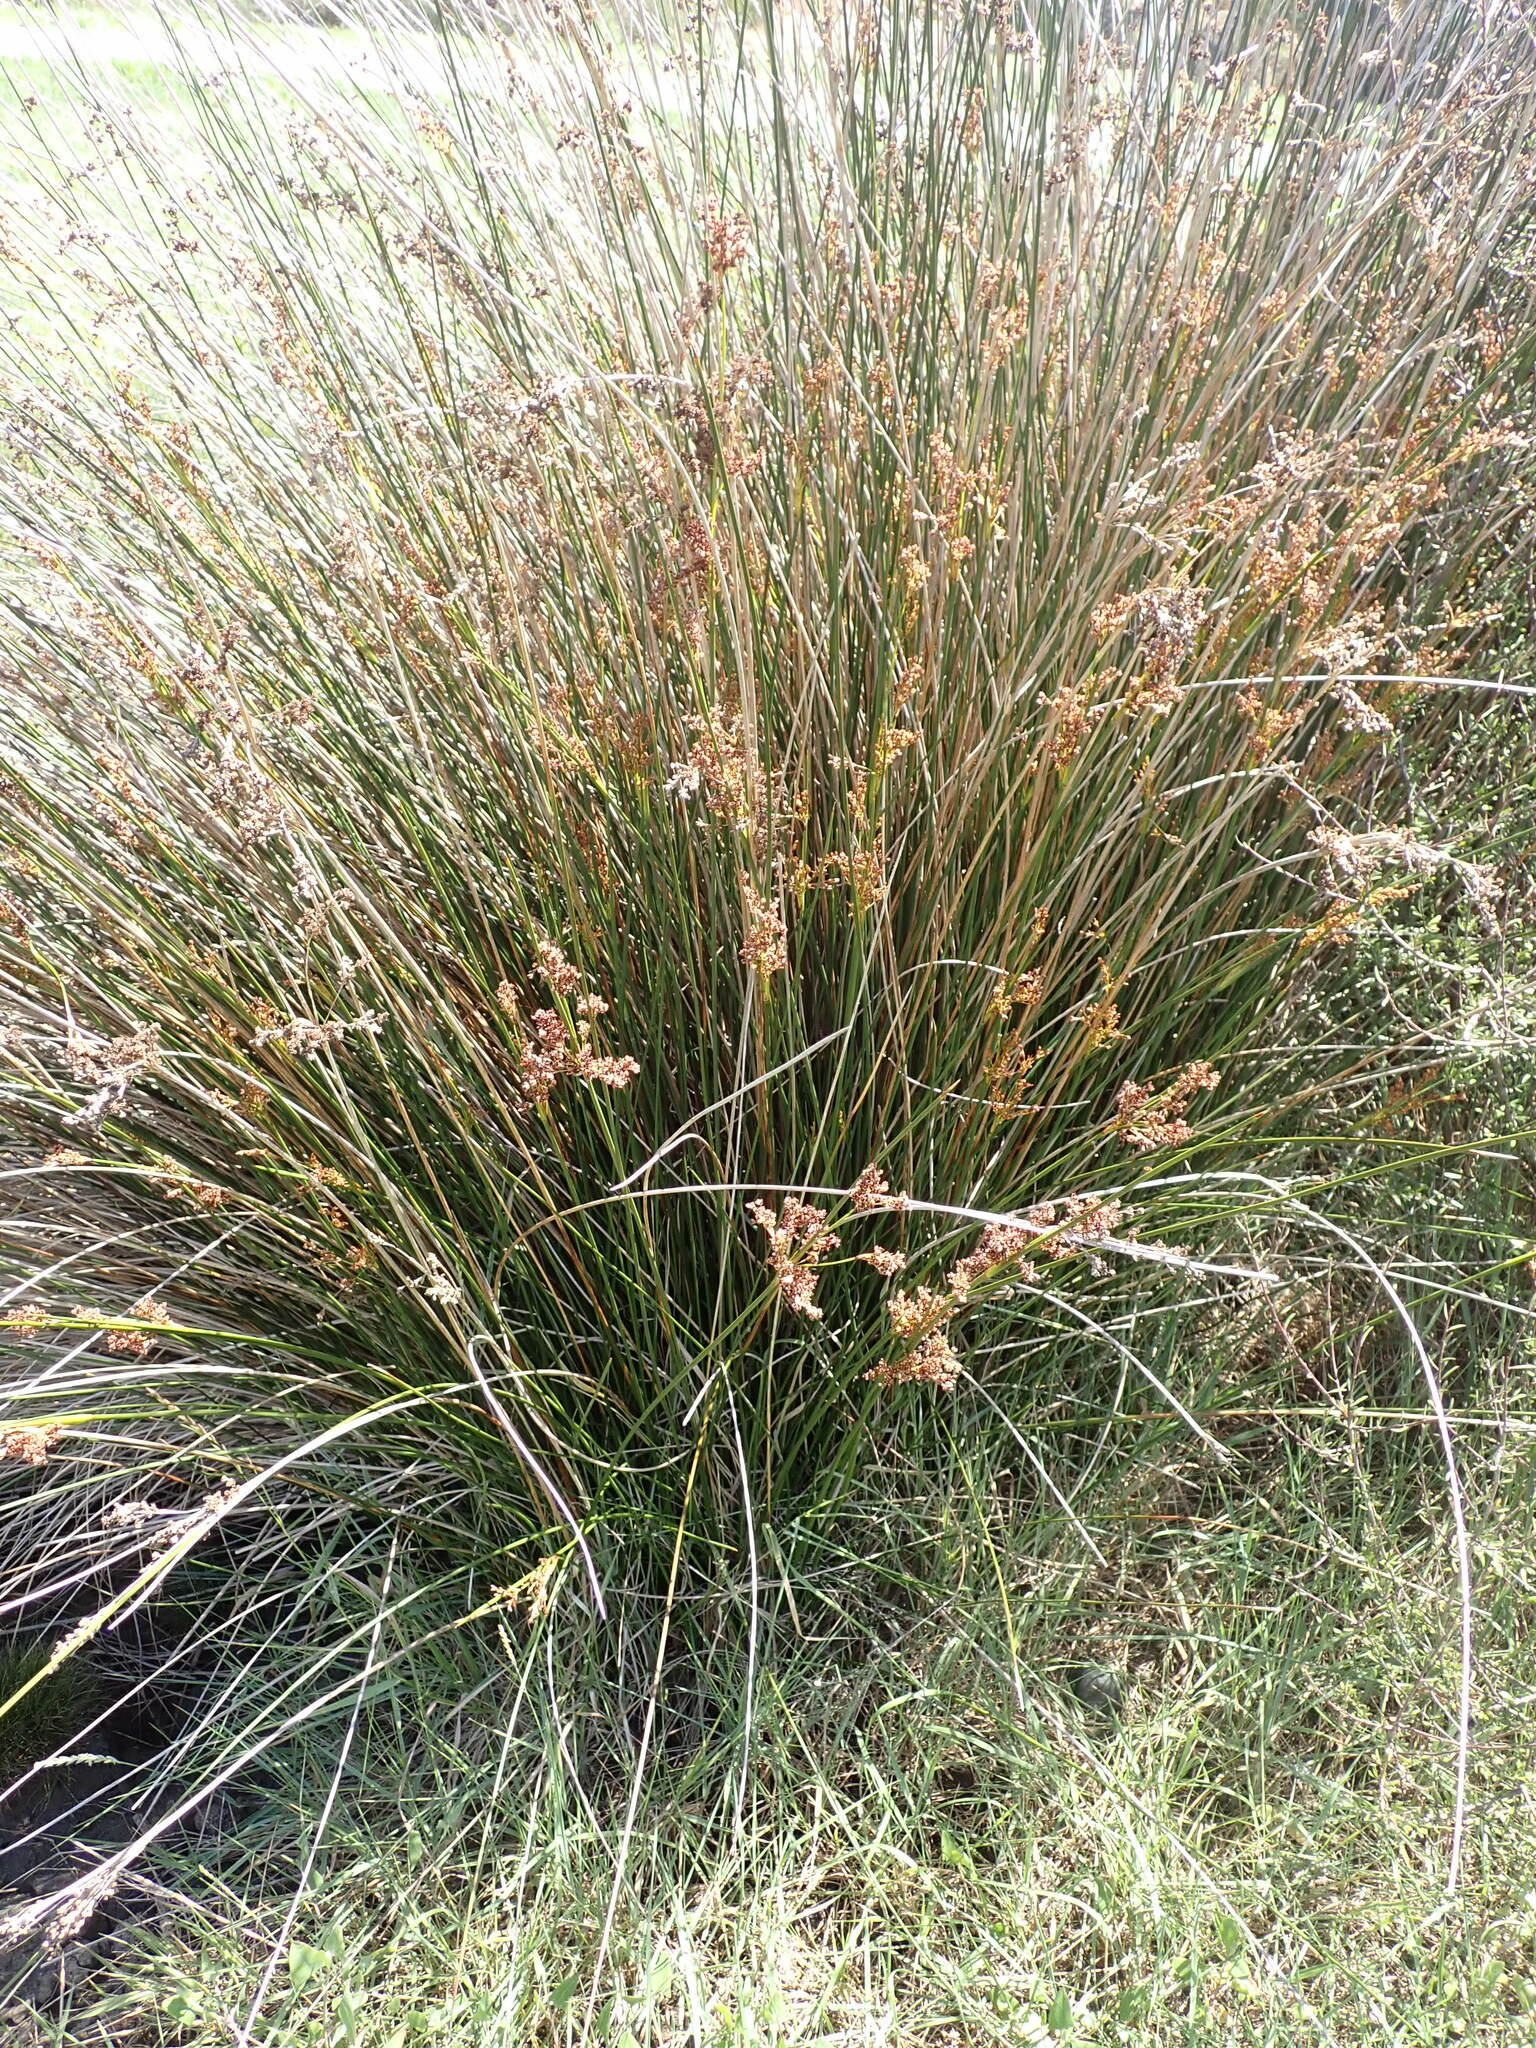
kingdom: Plantae
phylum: Tracheophyta
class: Liliopsida
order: Poales
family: Juncaceae
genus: Juncus
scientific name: Juncus kraussii
